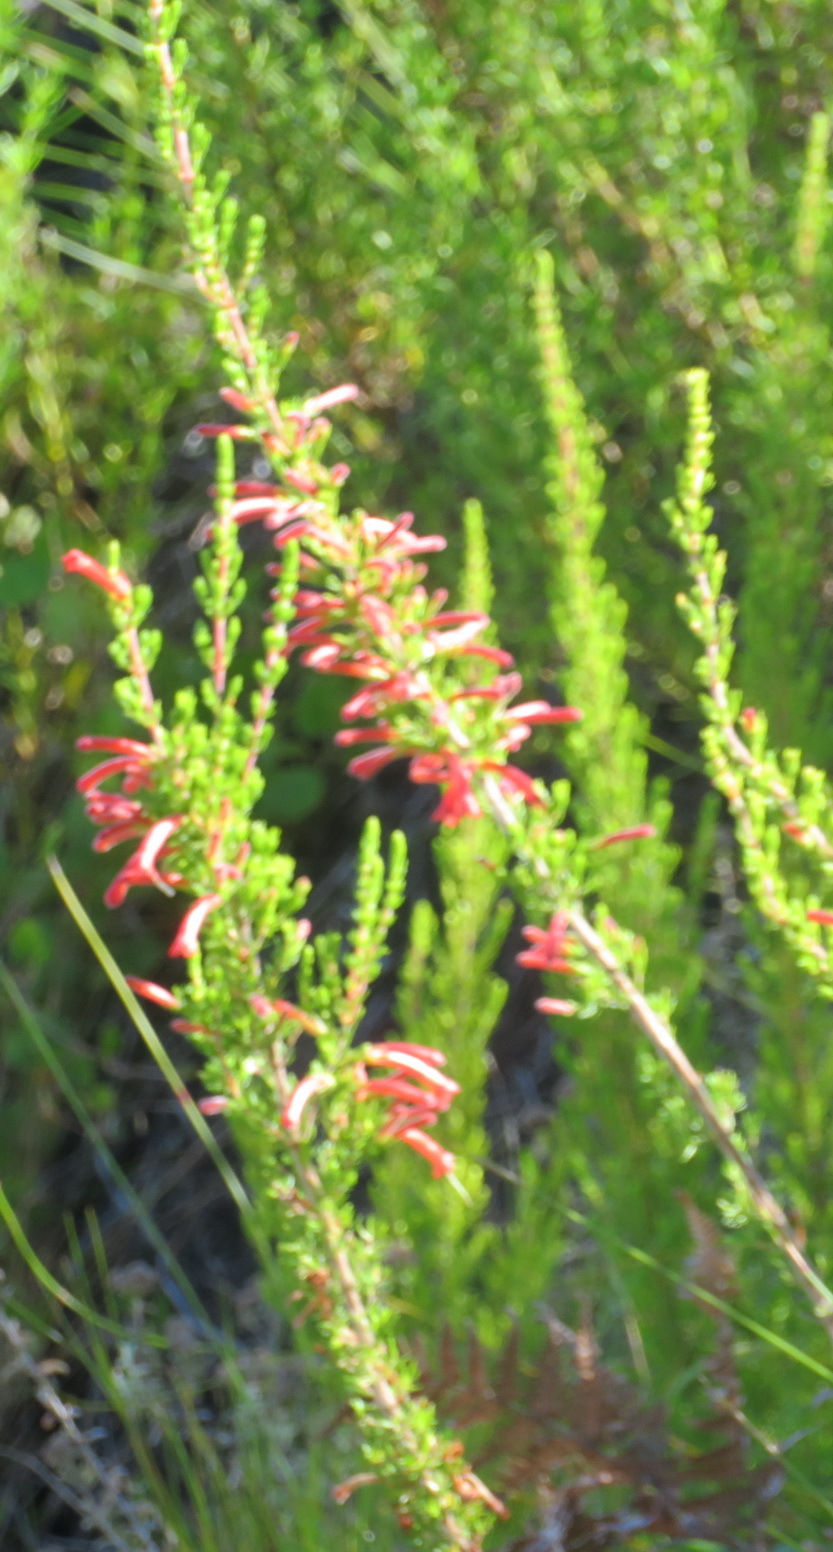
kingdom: Plantae
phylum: Tracheophyta
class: Magnoliopsida
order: Ericales
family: Ericaceae
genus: Erica
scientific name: Erica curviflora
